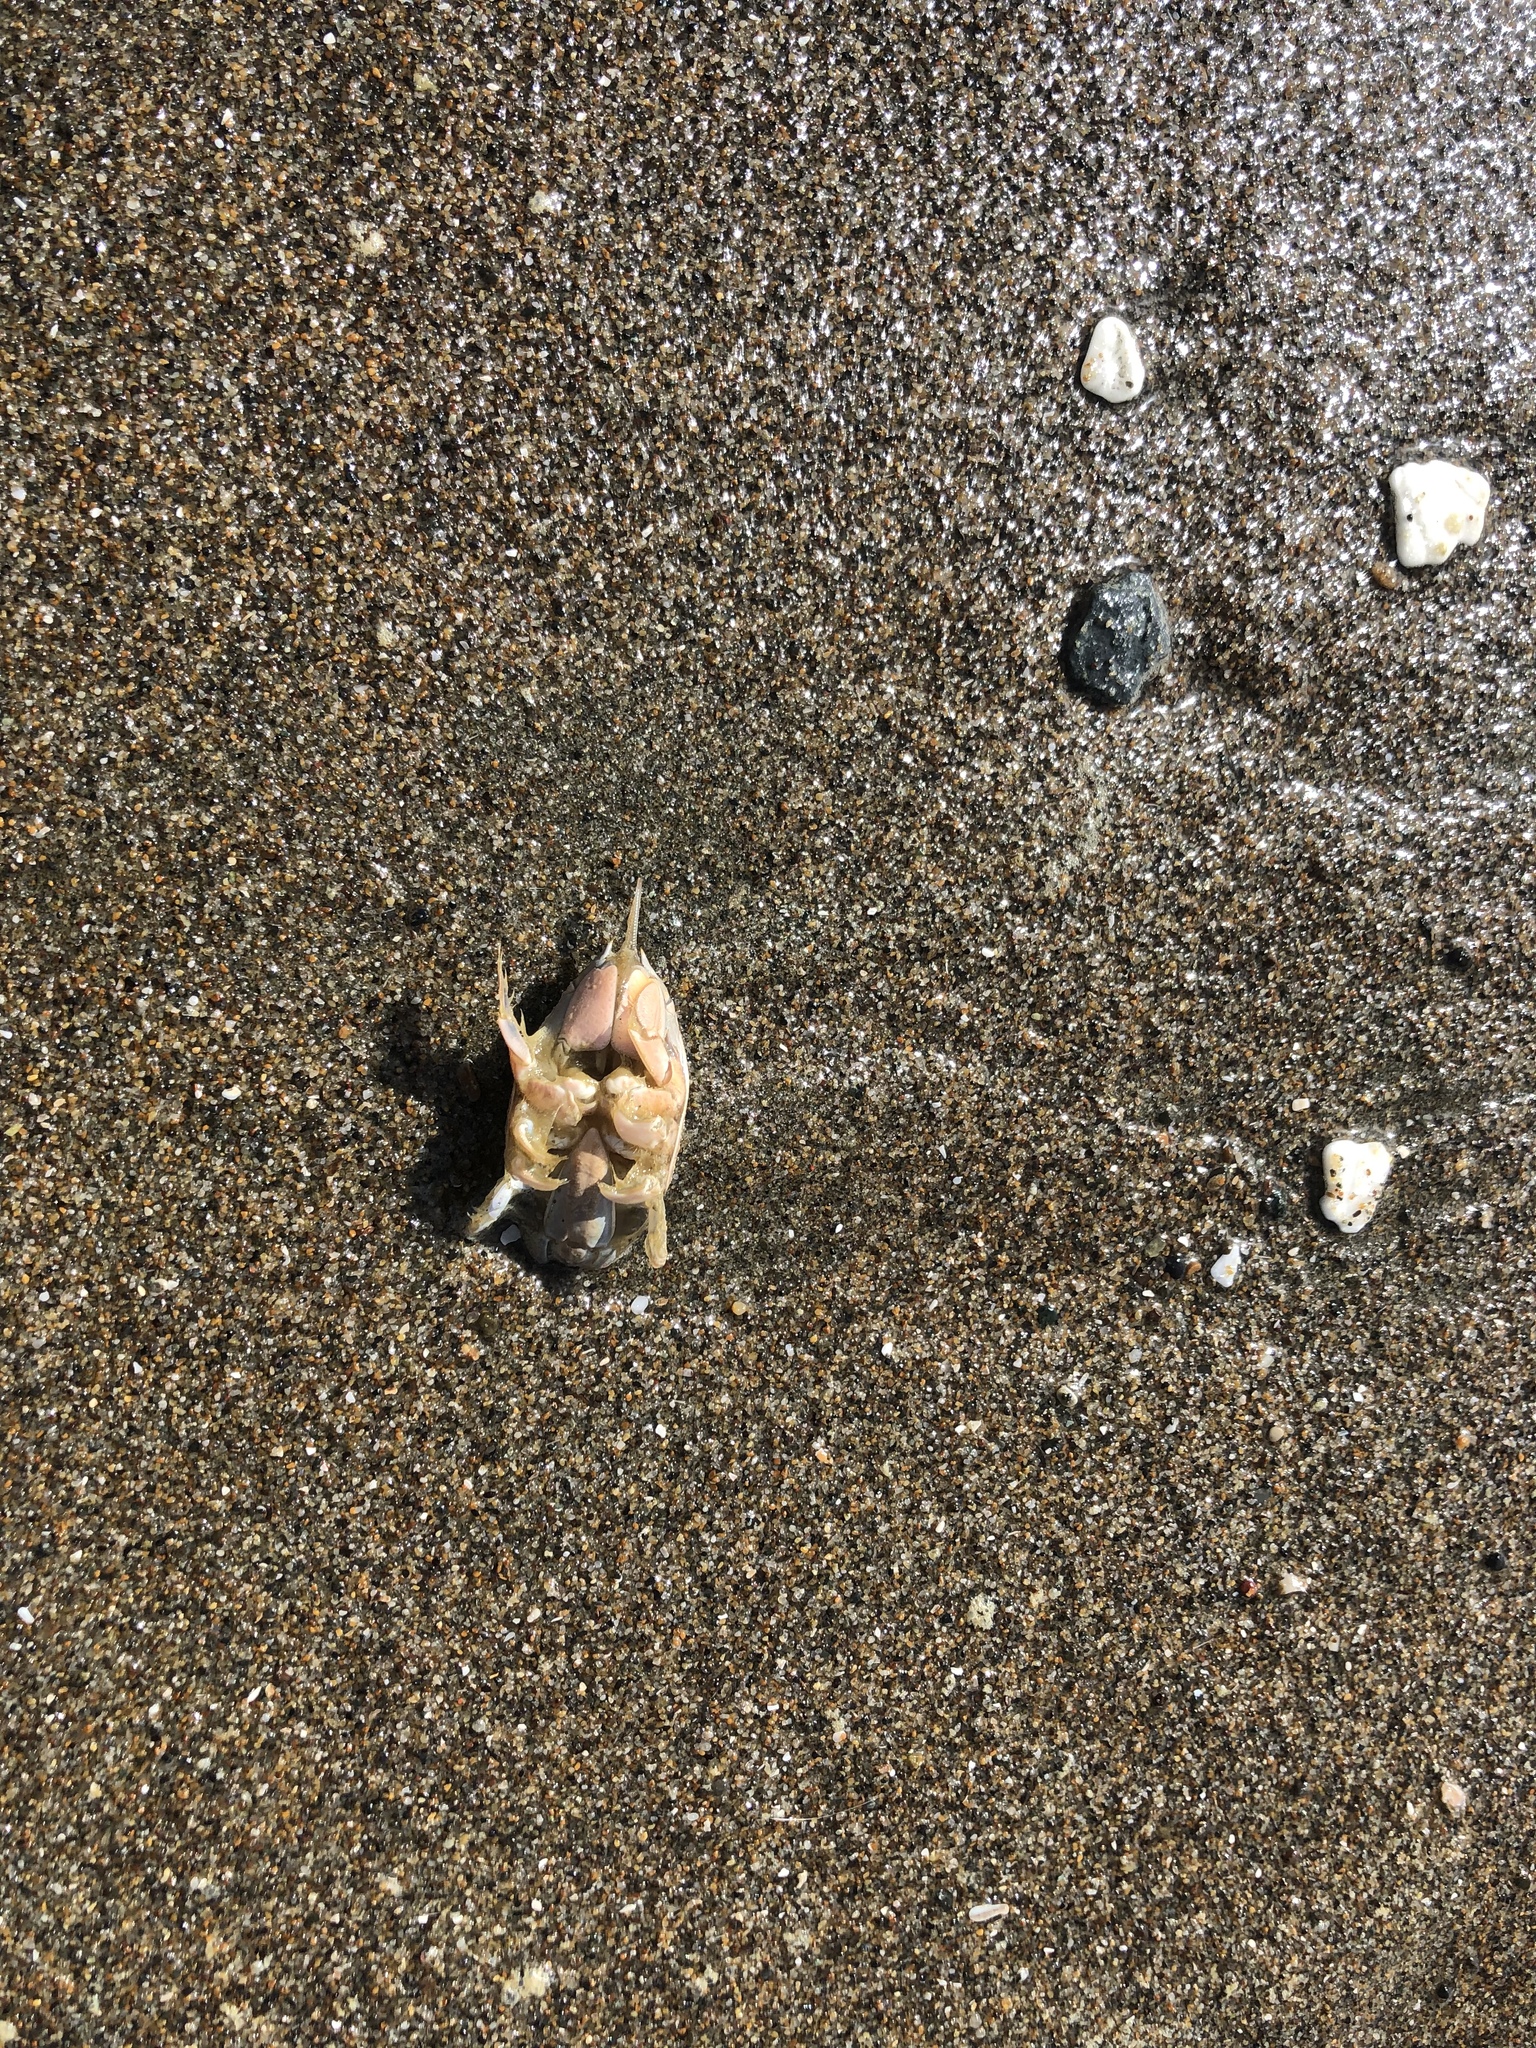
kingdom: Animalia
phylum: Arthropoda
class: Malacostraca
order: Decapoda
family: Hippidae
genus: Emerita
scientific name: Emerita analoga
